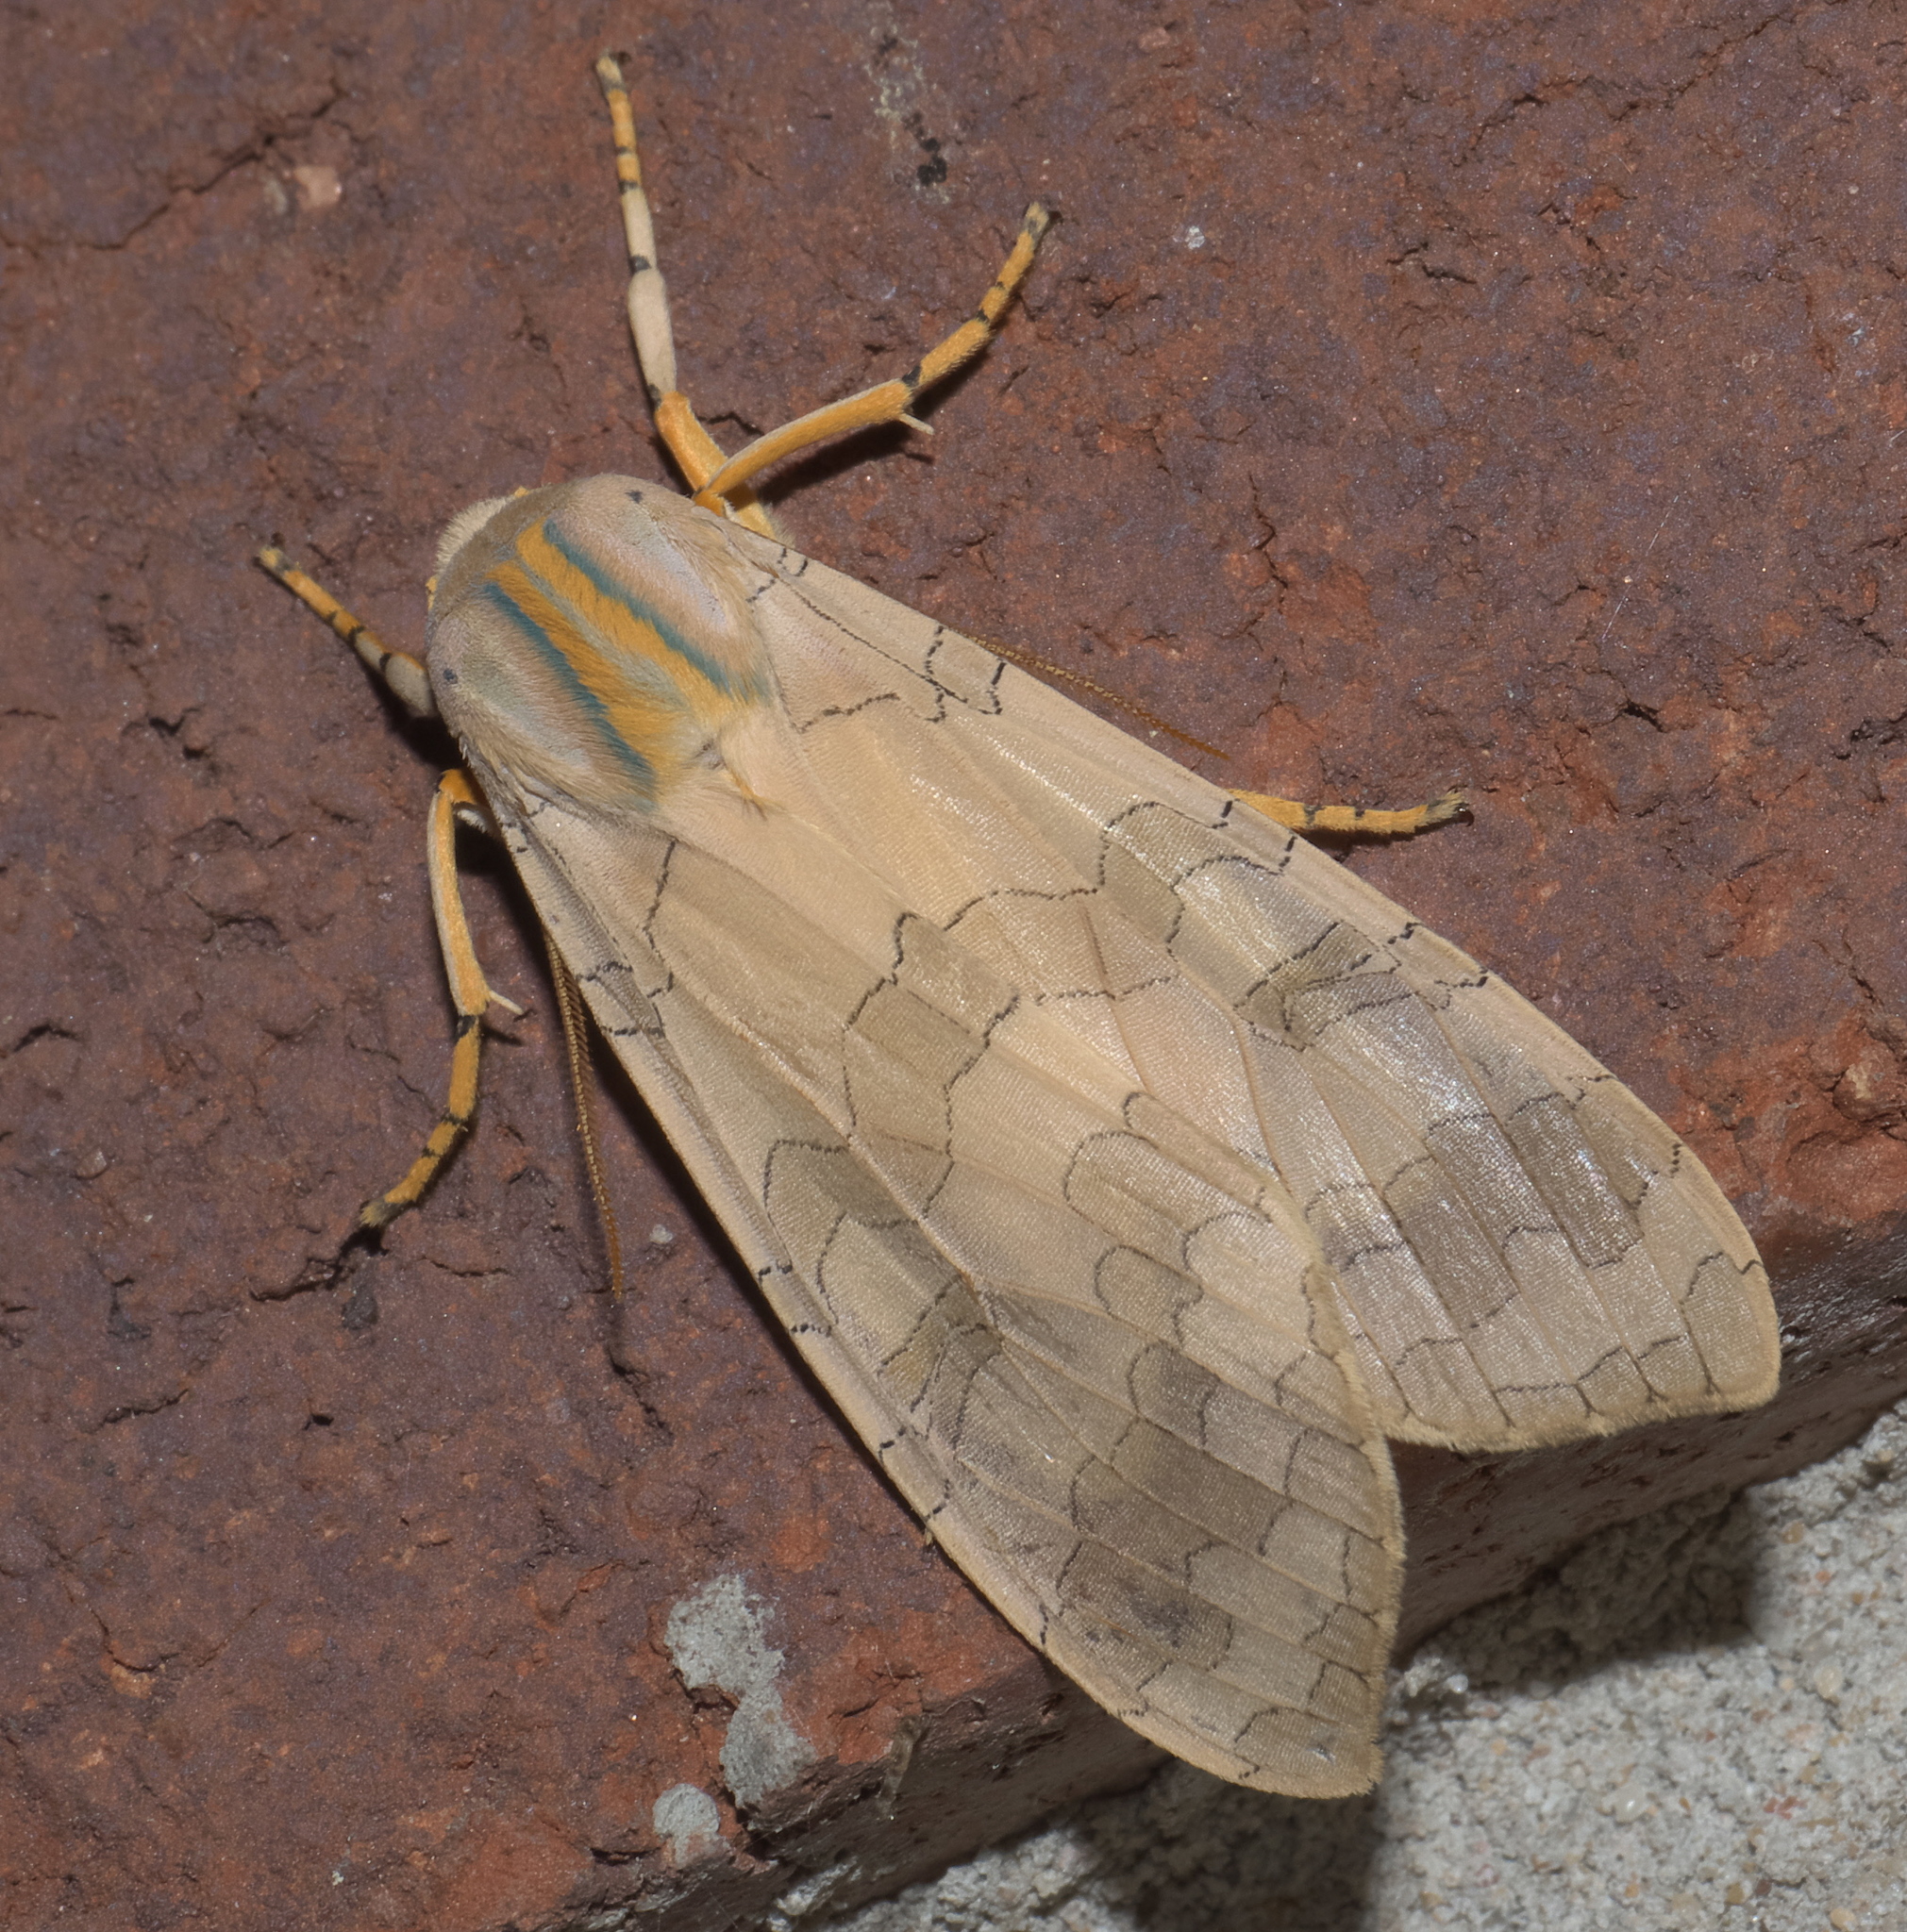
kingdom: Animalia
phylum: Arthropoda
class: Insecta
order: Lepidoptera
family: Erebidae
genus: Halysidota
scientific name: Halysidota
